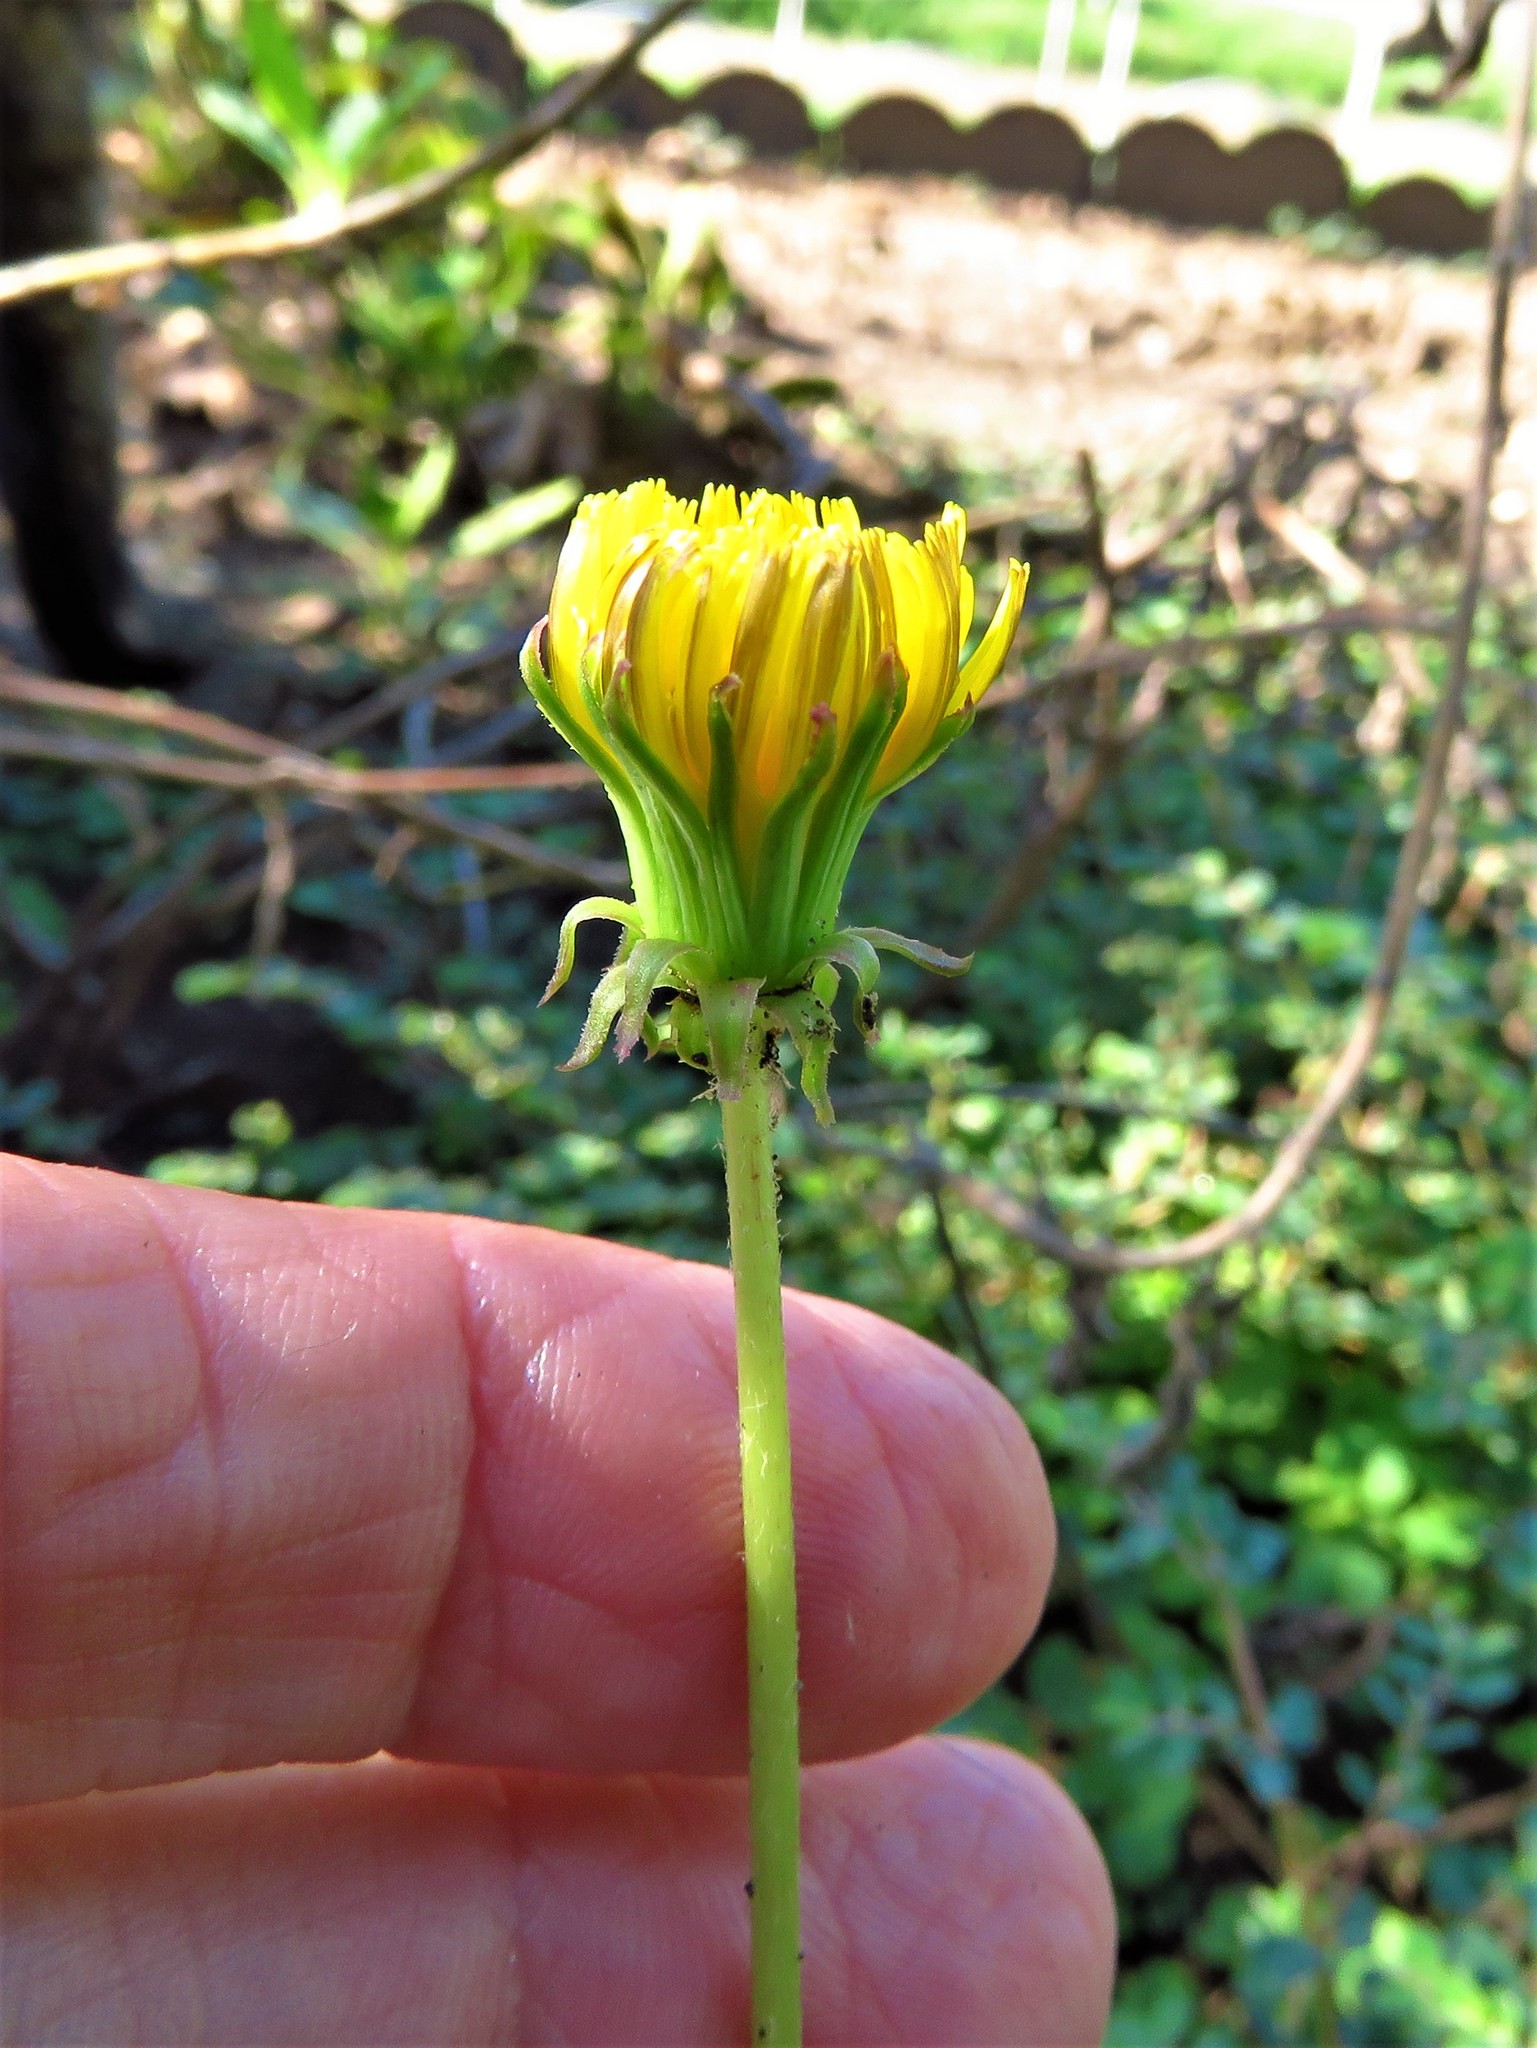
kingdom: Plantae
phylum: Tracheophyta
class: Magnoliopsida
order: Asterales
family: Asteraceae
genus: Taraxacum
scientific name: Taraxacum officinale
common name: Common dandelion
